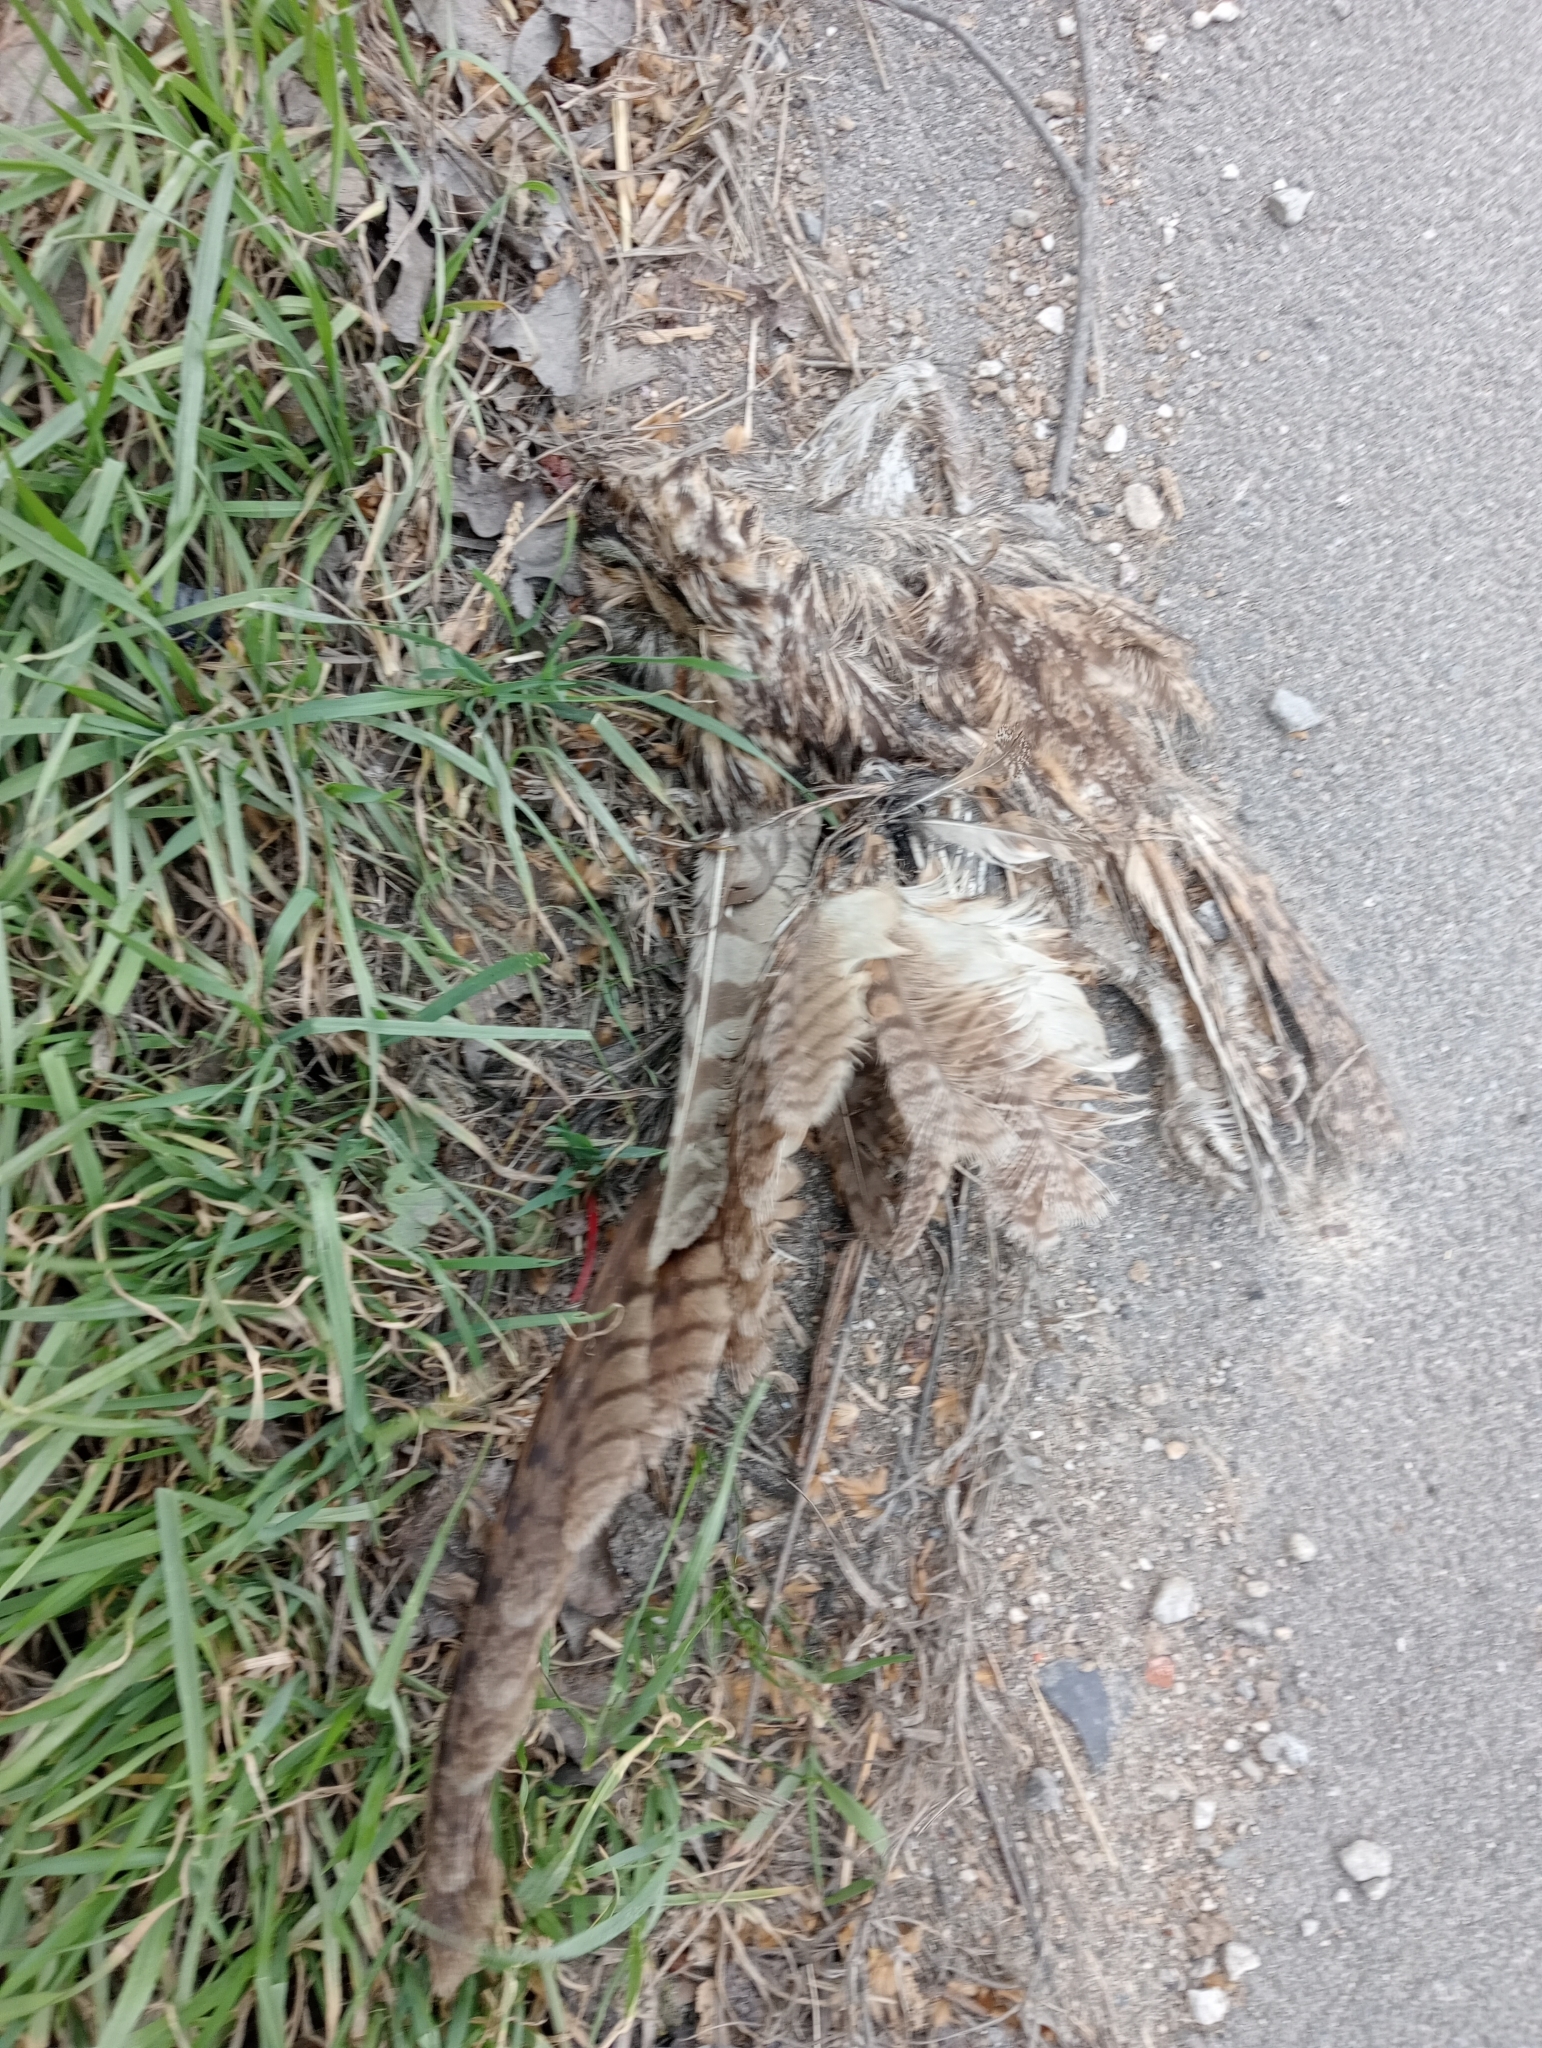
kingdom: Animalia
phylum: Chordata
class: Aves
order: Strigiformes
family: Strigidae
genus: Asio
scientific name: Asio otus
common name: Long-eared owl
